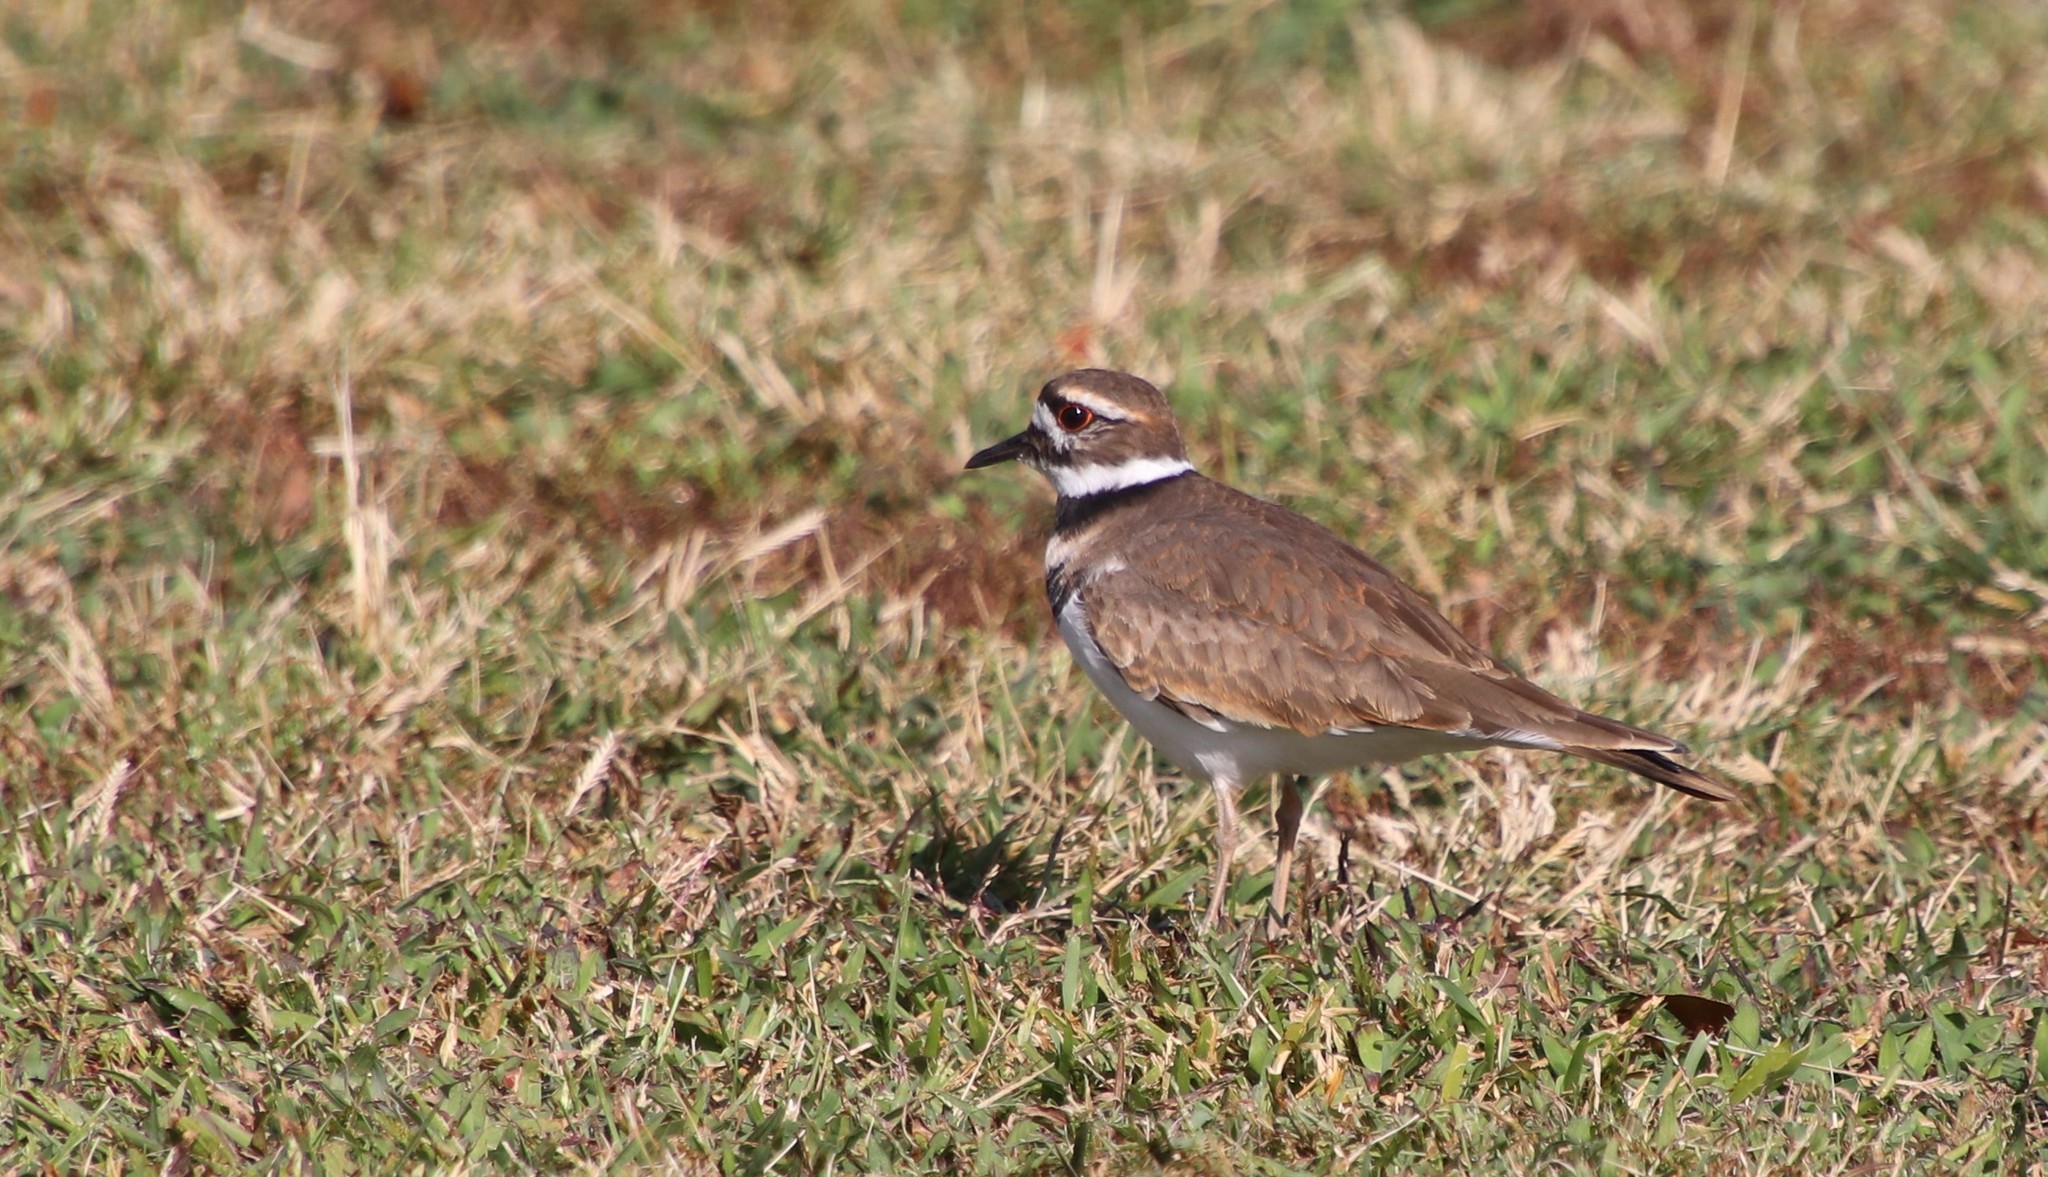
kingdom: Animalia
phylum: Chordata
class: Aves
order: Charadriiformes
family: Charadriidae
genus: Charadrius
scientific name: Charadrius vociferus
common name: Killdeer
